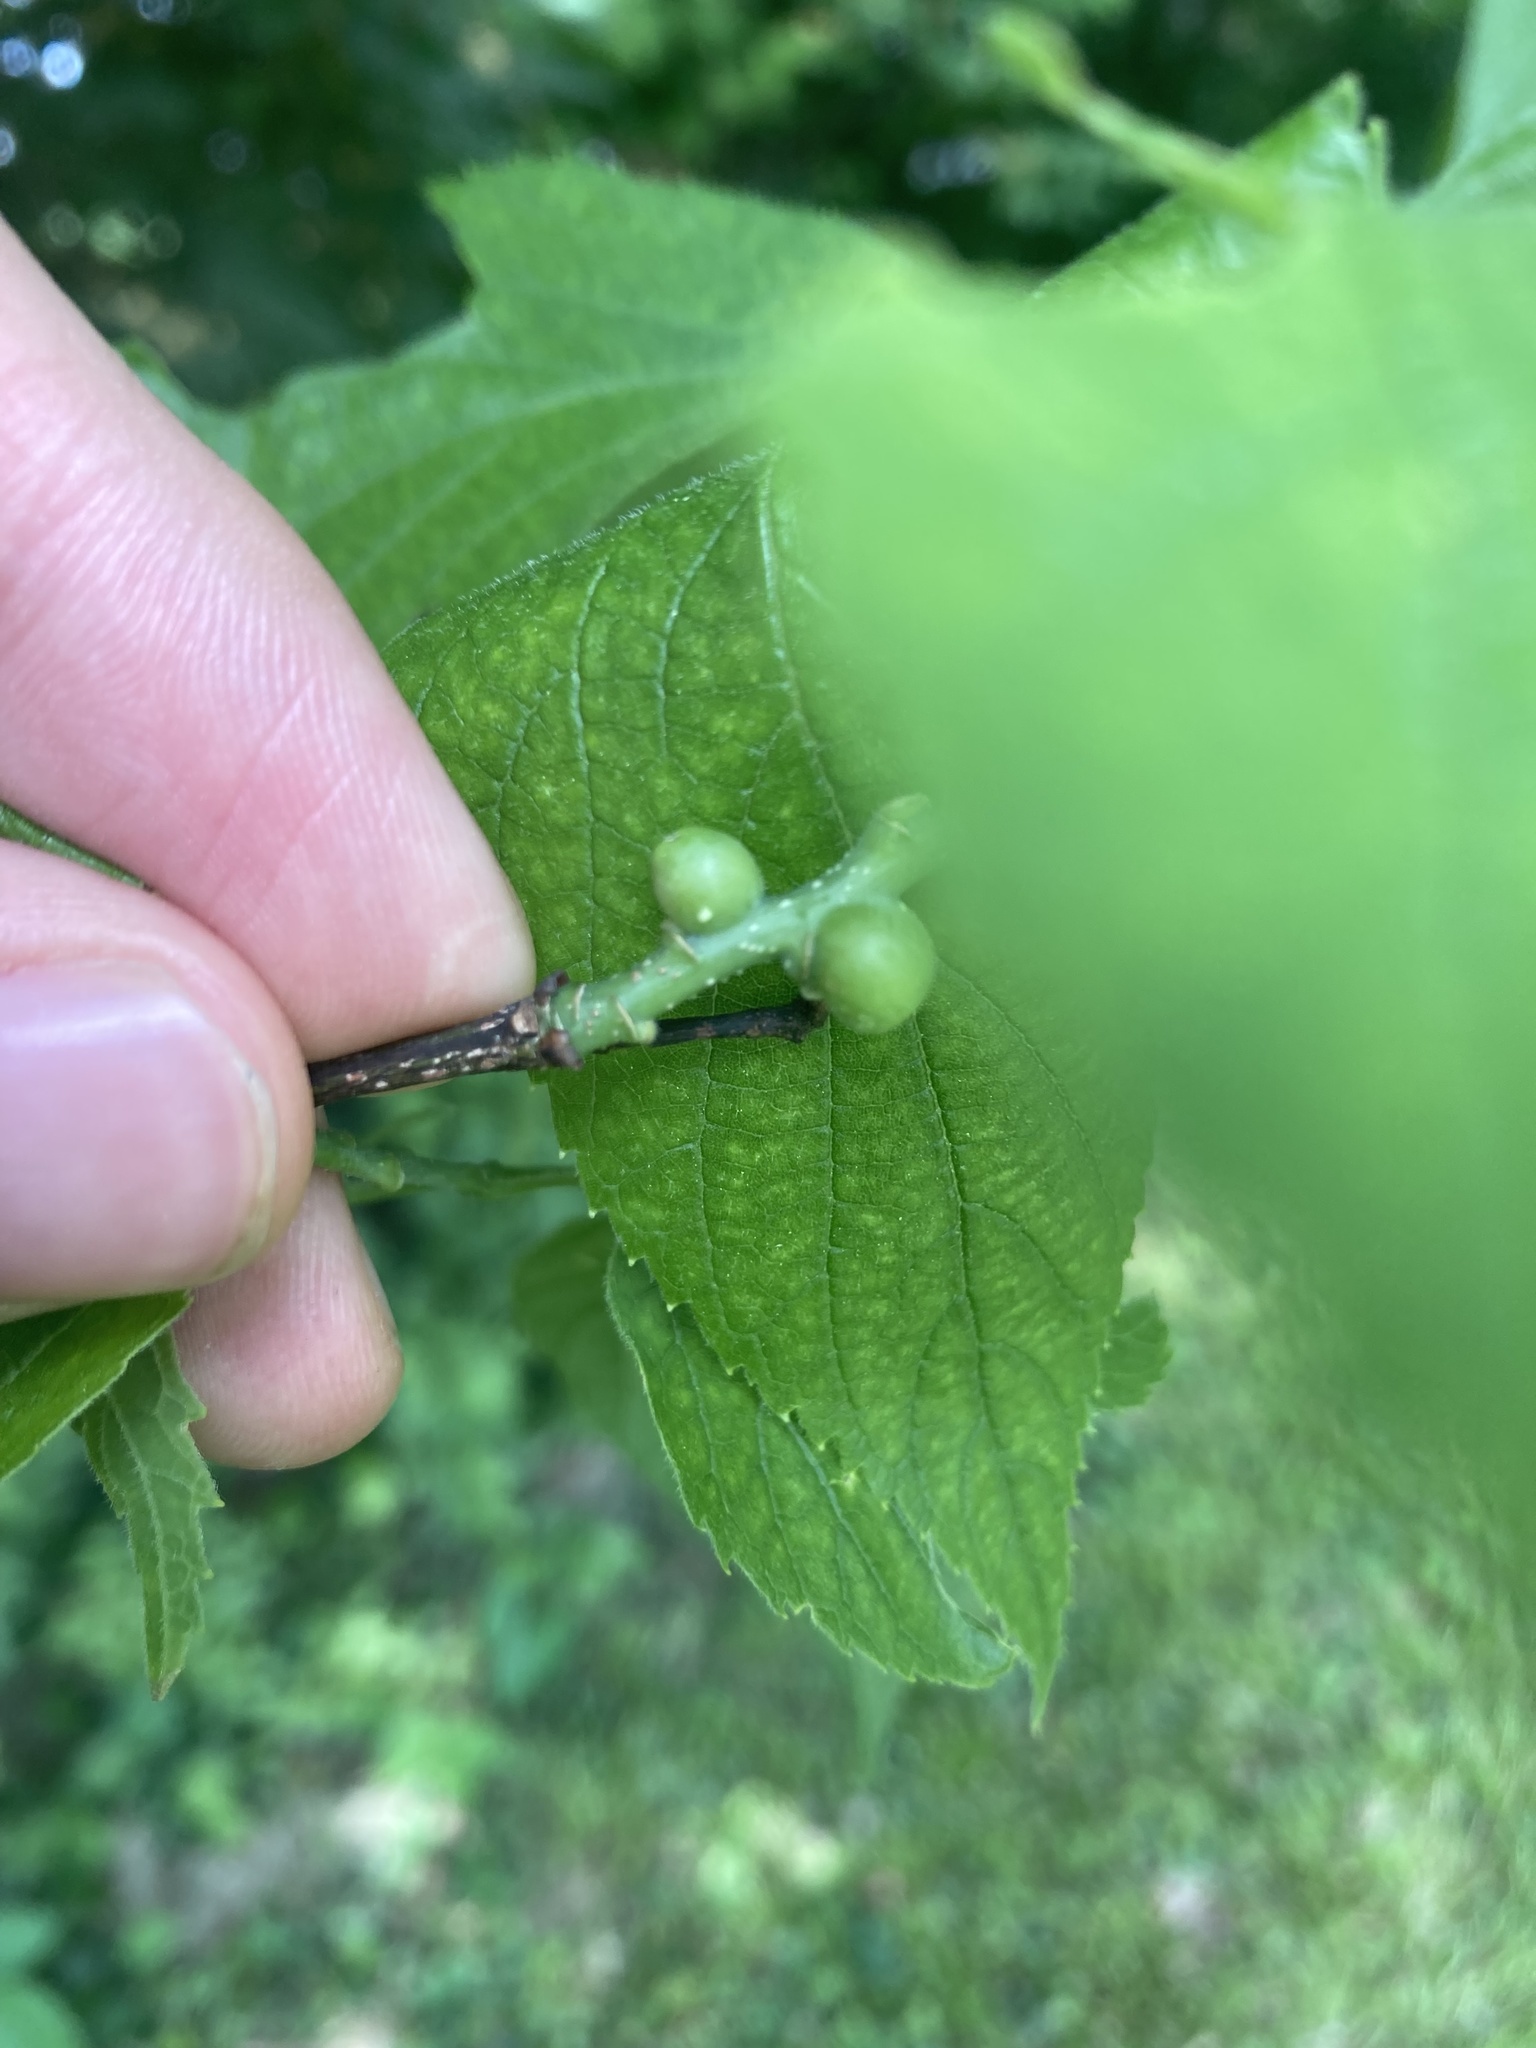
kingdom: Animalia
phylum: Arthropoda
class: Insecta
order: Diptera
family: Cecidomyiidae
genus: Celticecis
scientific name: Celticecis expulsa
